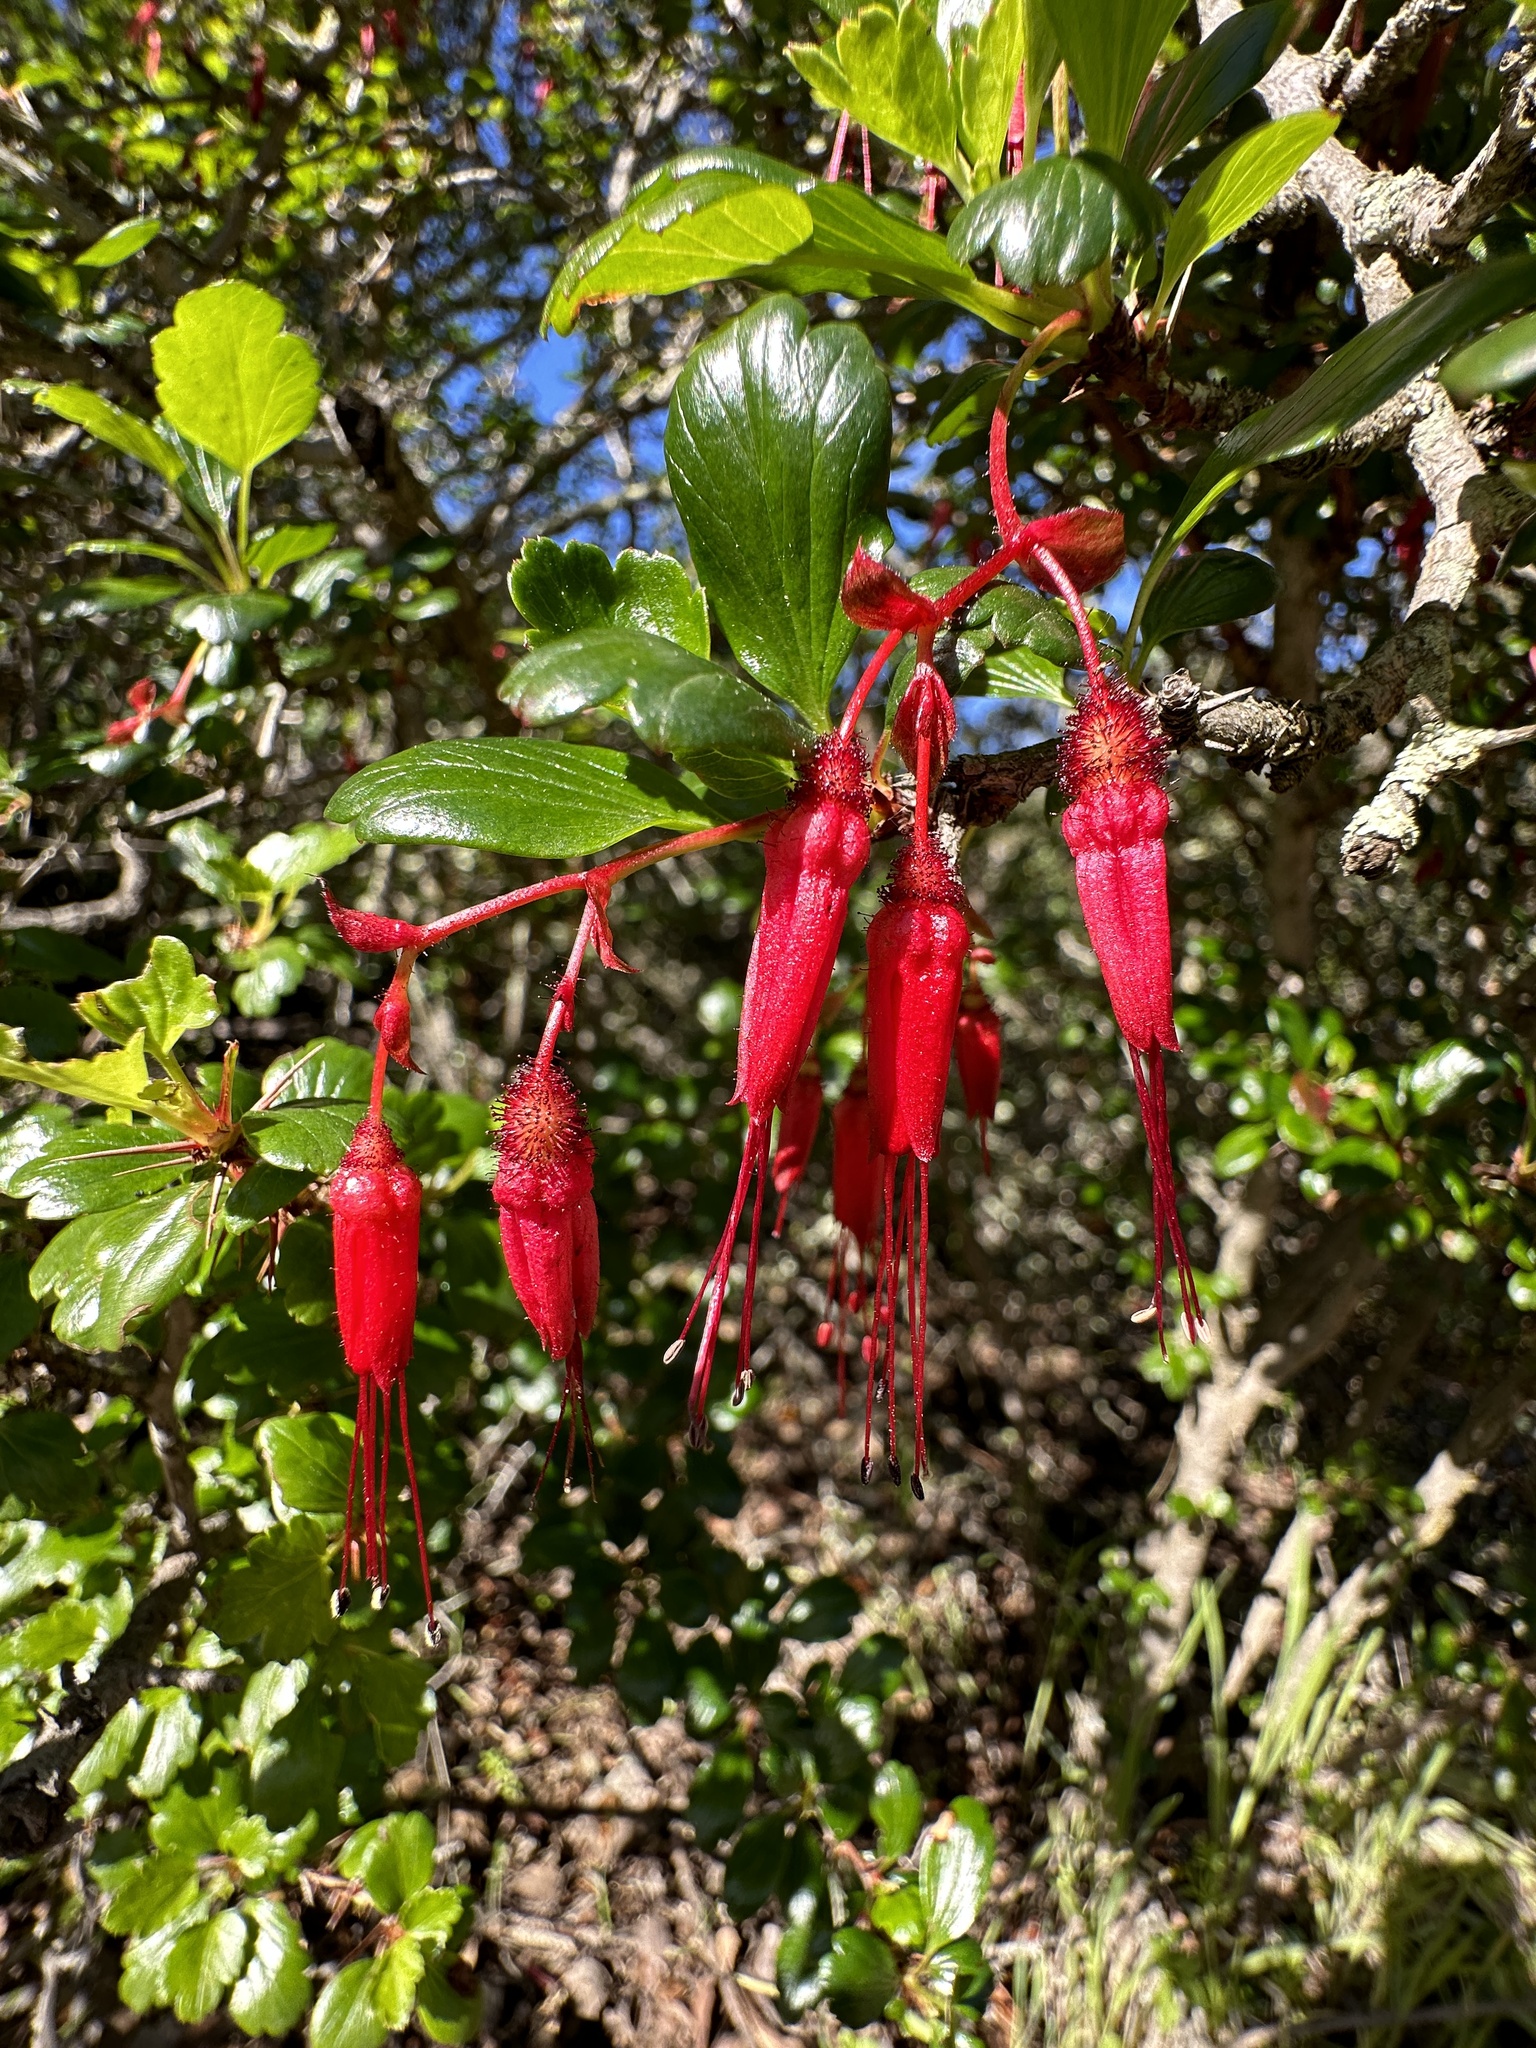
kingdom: Plantae
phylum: Tracheophyta
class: Magnoliopsida
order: Saxifragales
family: Grossulariaceae
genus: Ribes
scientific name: Ribes speciosum
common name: Fuchsia-flower gooseberry
